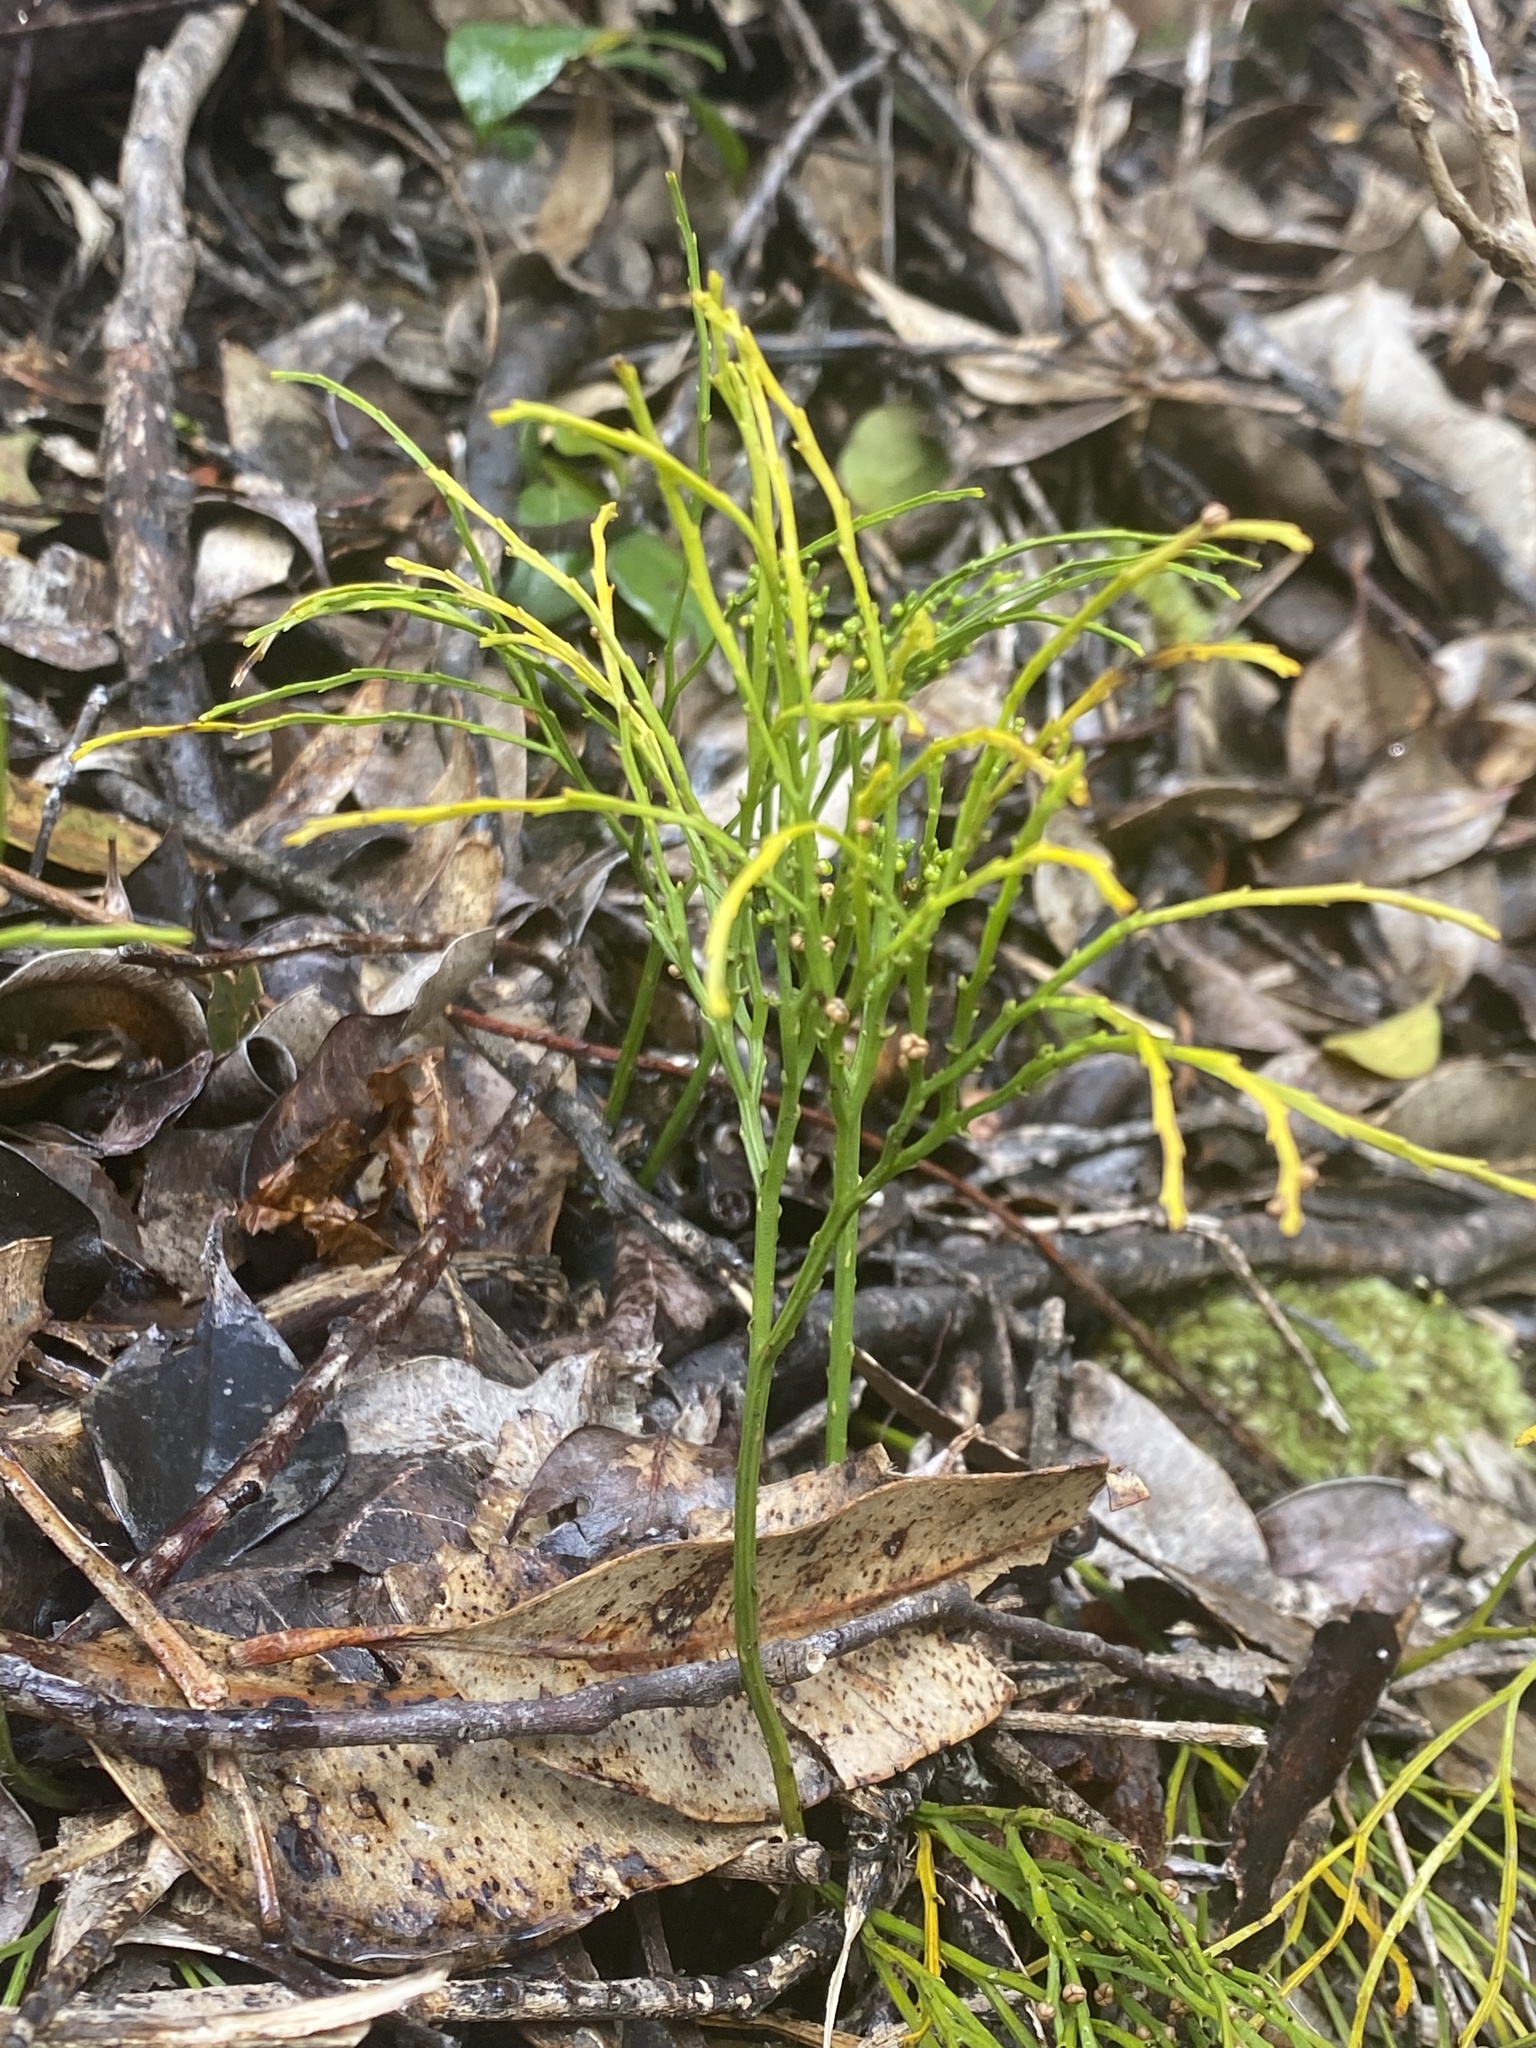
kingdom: Plantae
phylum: Tracheophyta
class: Polypodiopsida
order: Psilotales
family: Psilotaceae
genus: Psilotum
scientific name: Psilotum nudum
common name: Skeleton fork fern
